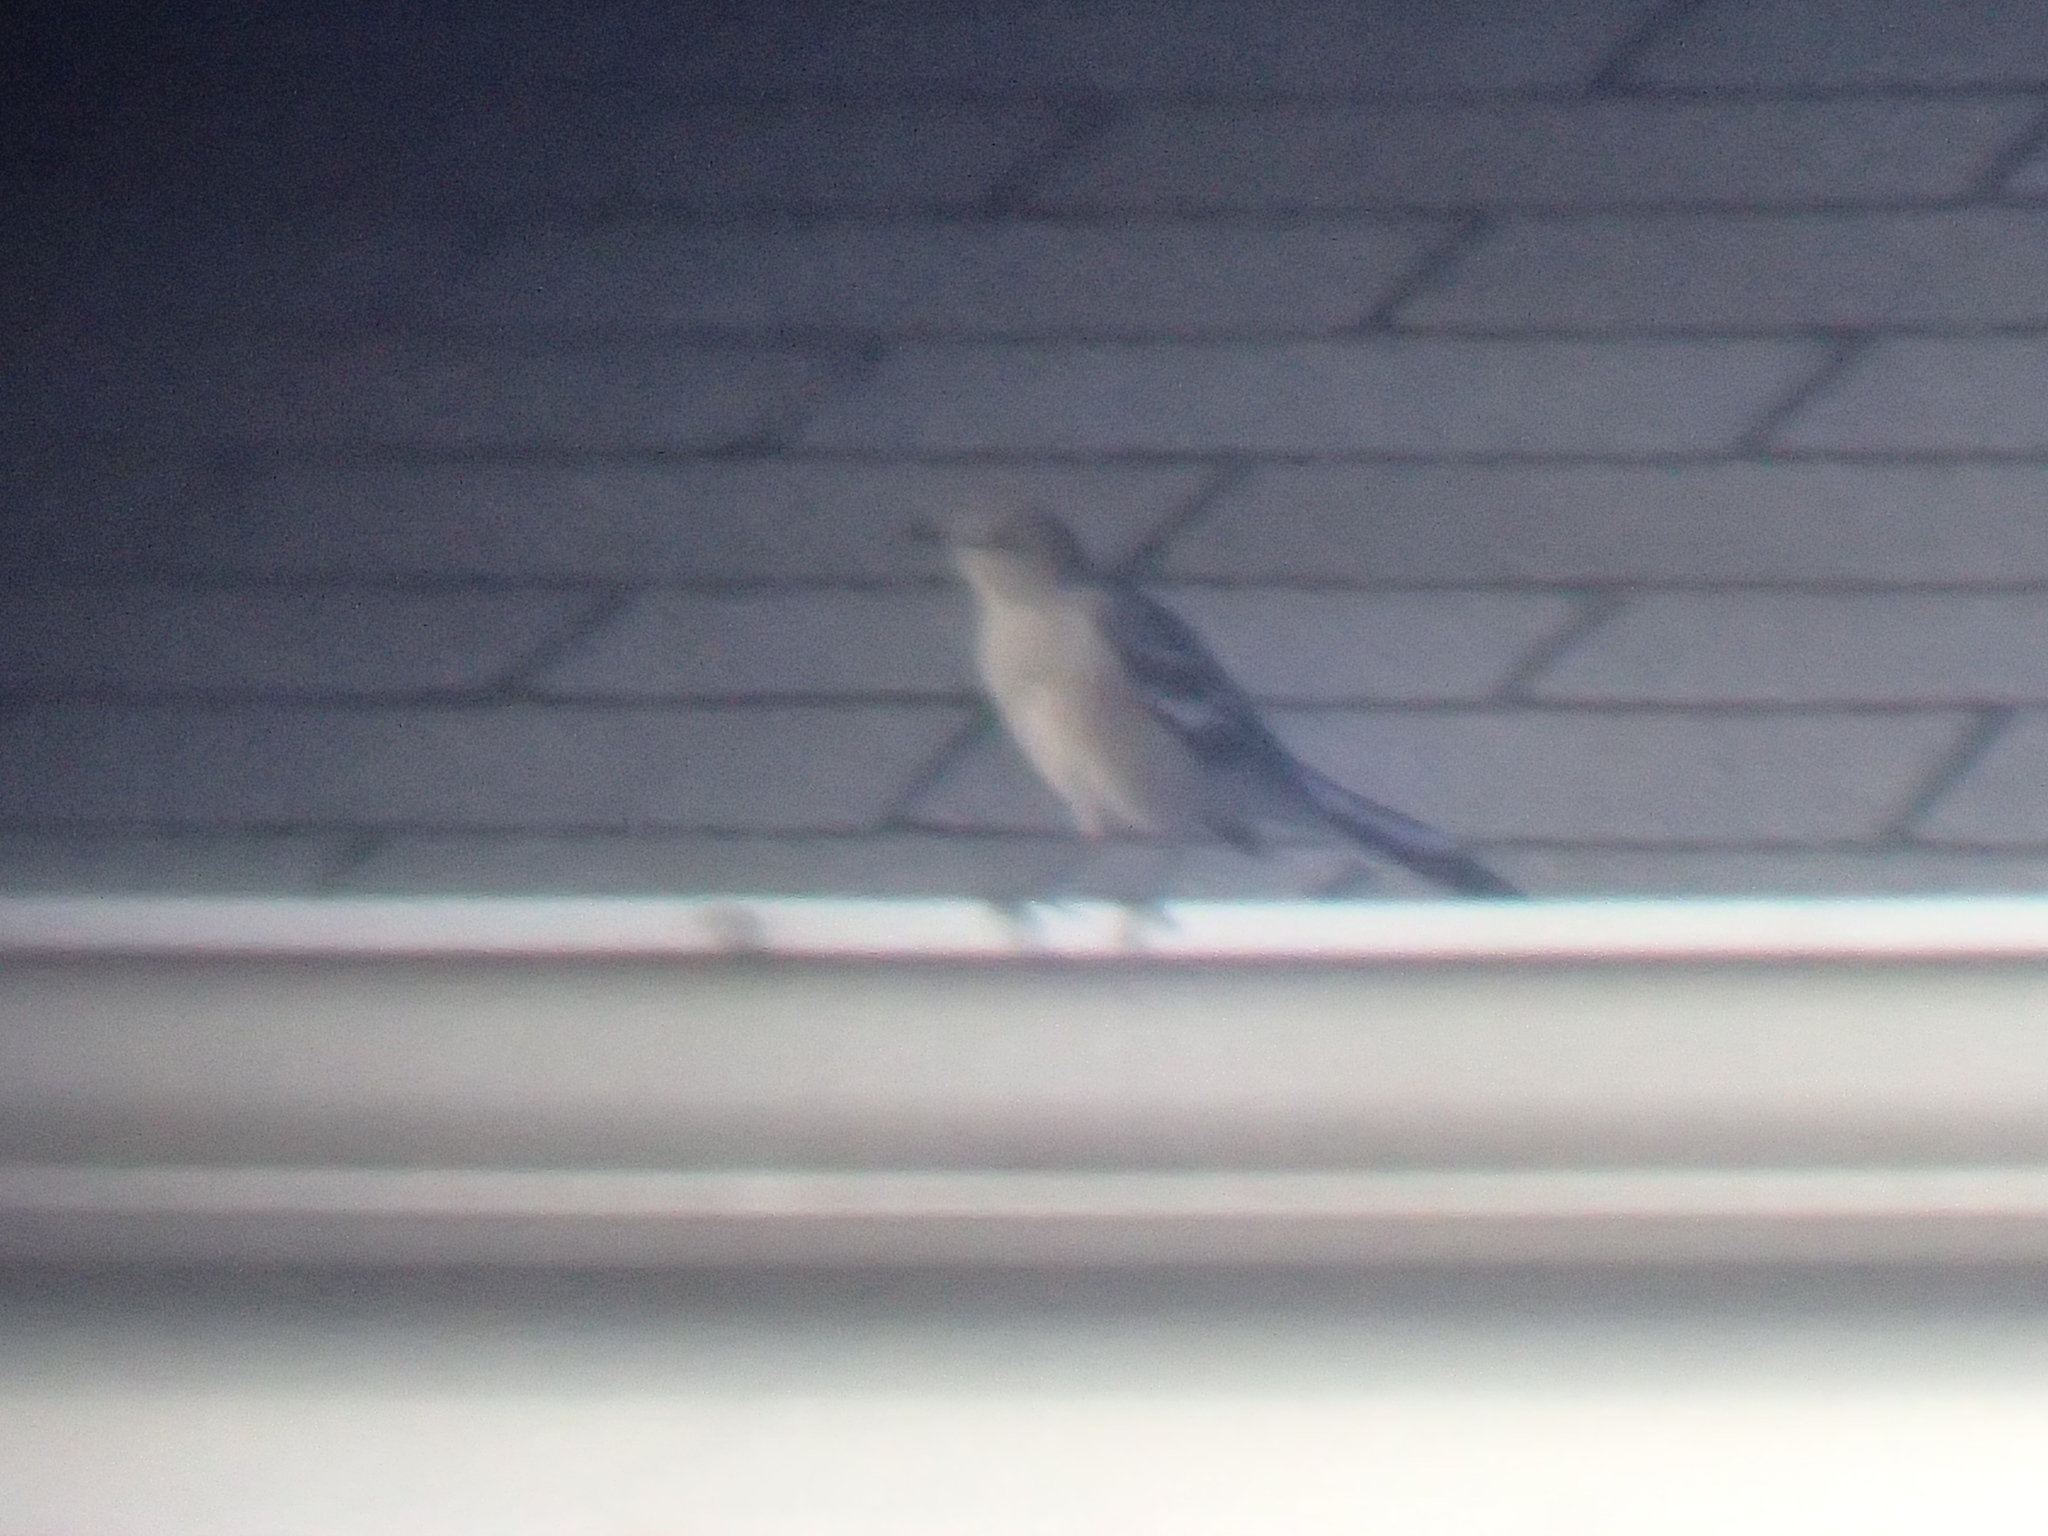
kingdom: Animalia
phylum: Chordata
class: Aves
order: Passeriformes
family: Mimidae
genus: Mimus
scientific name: Mimus polyglottos
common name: Northern mockingbird
